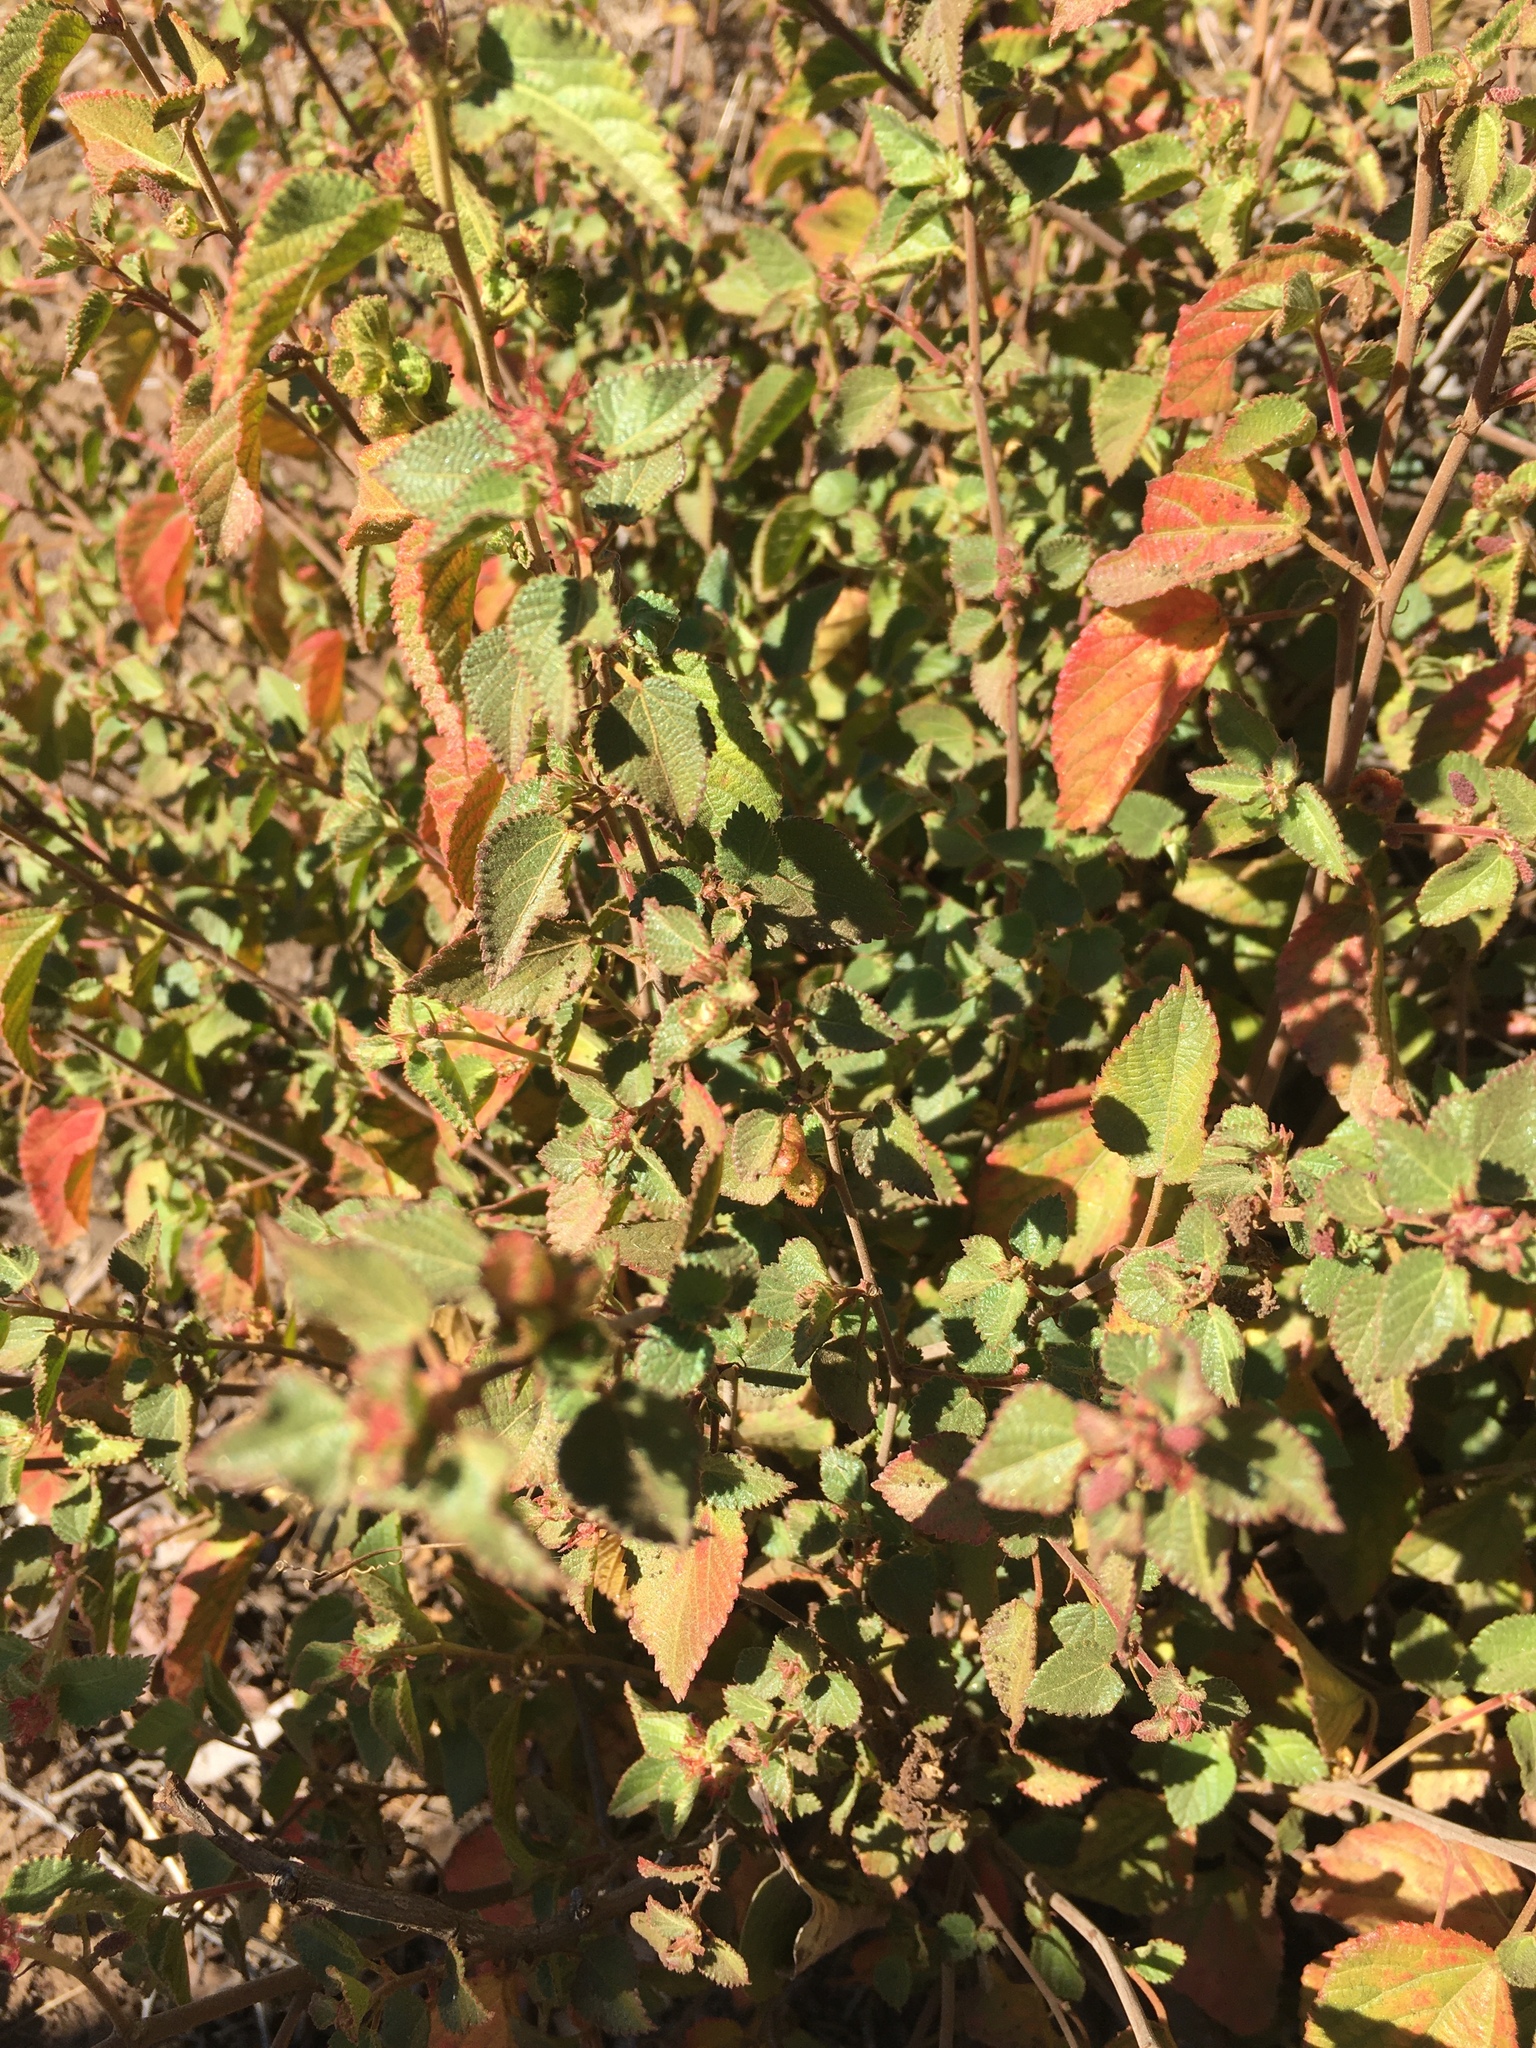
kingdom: Plantae
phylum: Tracheophyta
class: Magnoliopsida
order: Malpighiales
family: Euphorbiaceae
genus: Acalypha
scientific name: Acalypha californica
